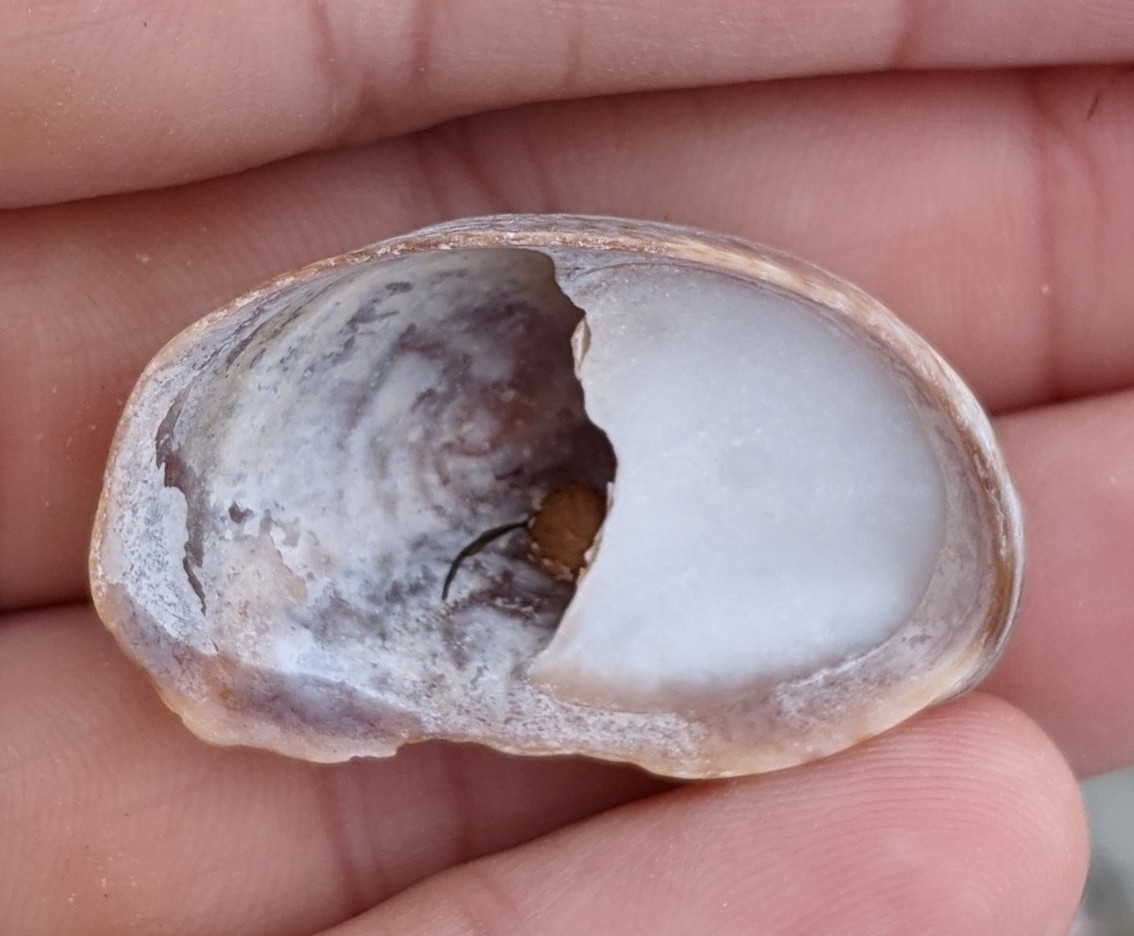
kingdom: Animalia
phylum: Mollusca
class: Gastropoda
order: Littorinimorpha
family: Calyptraeidae
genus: Crepidula
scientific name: Crepidula fornicata
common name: Slipper limpet
